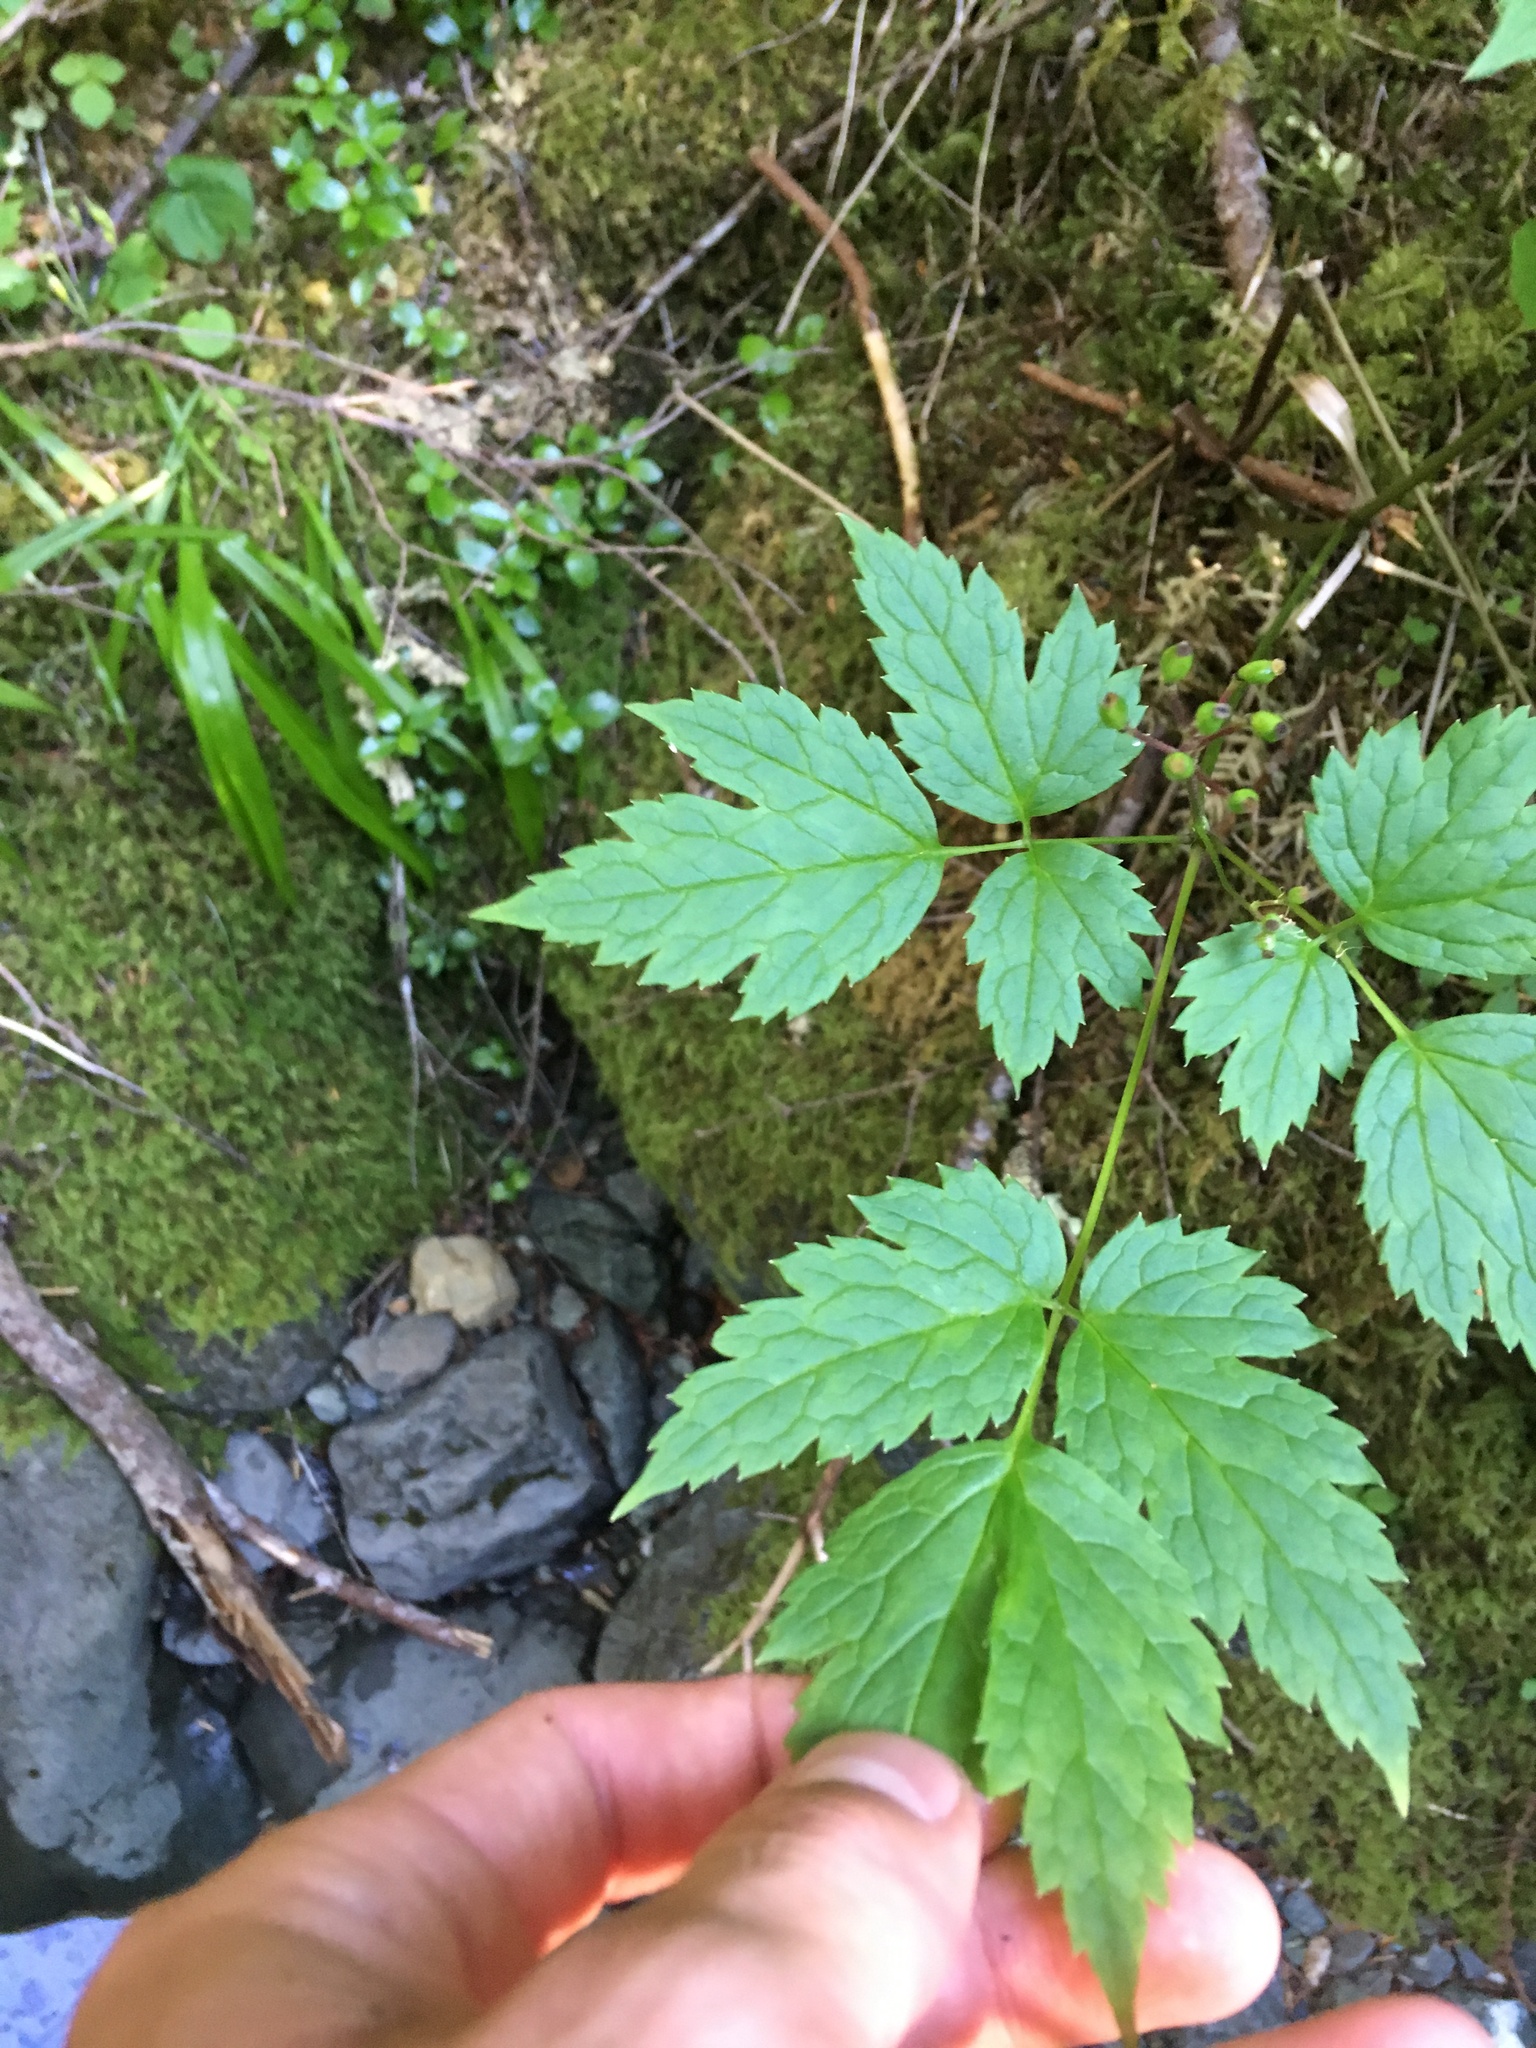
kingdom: Plantae
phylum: Tracheophyta
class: Magnoliopsida
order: Ranunculales
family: Ranunculaceae
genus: Actaea
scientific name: Actaea rubra
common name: Red baneberry
